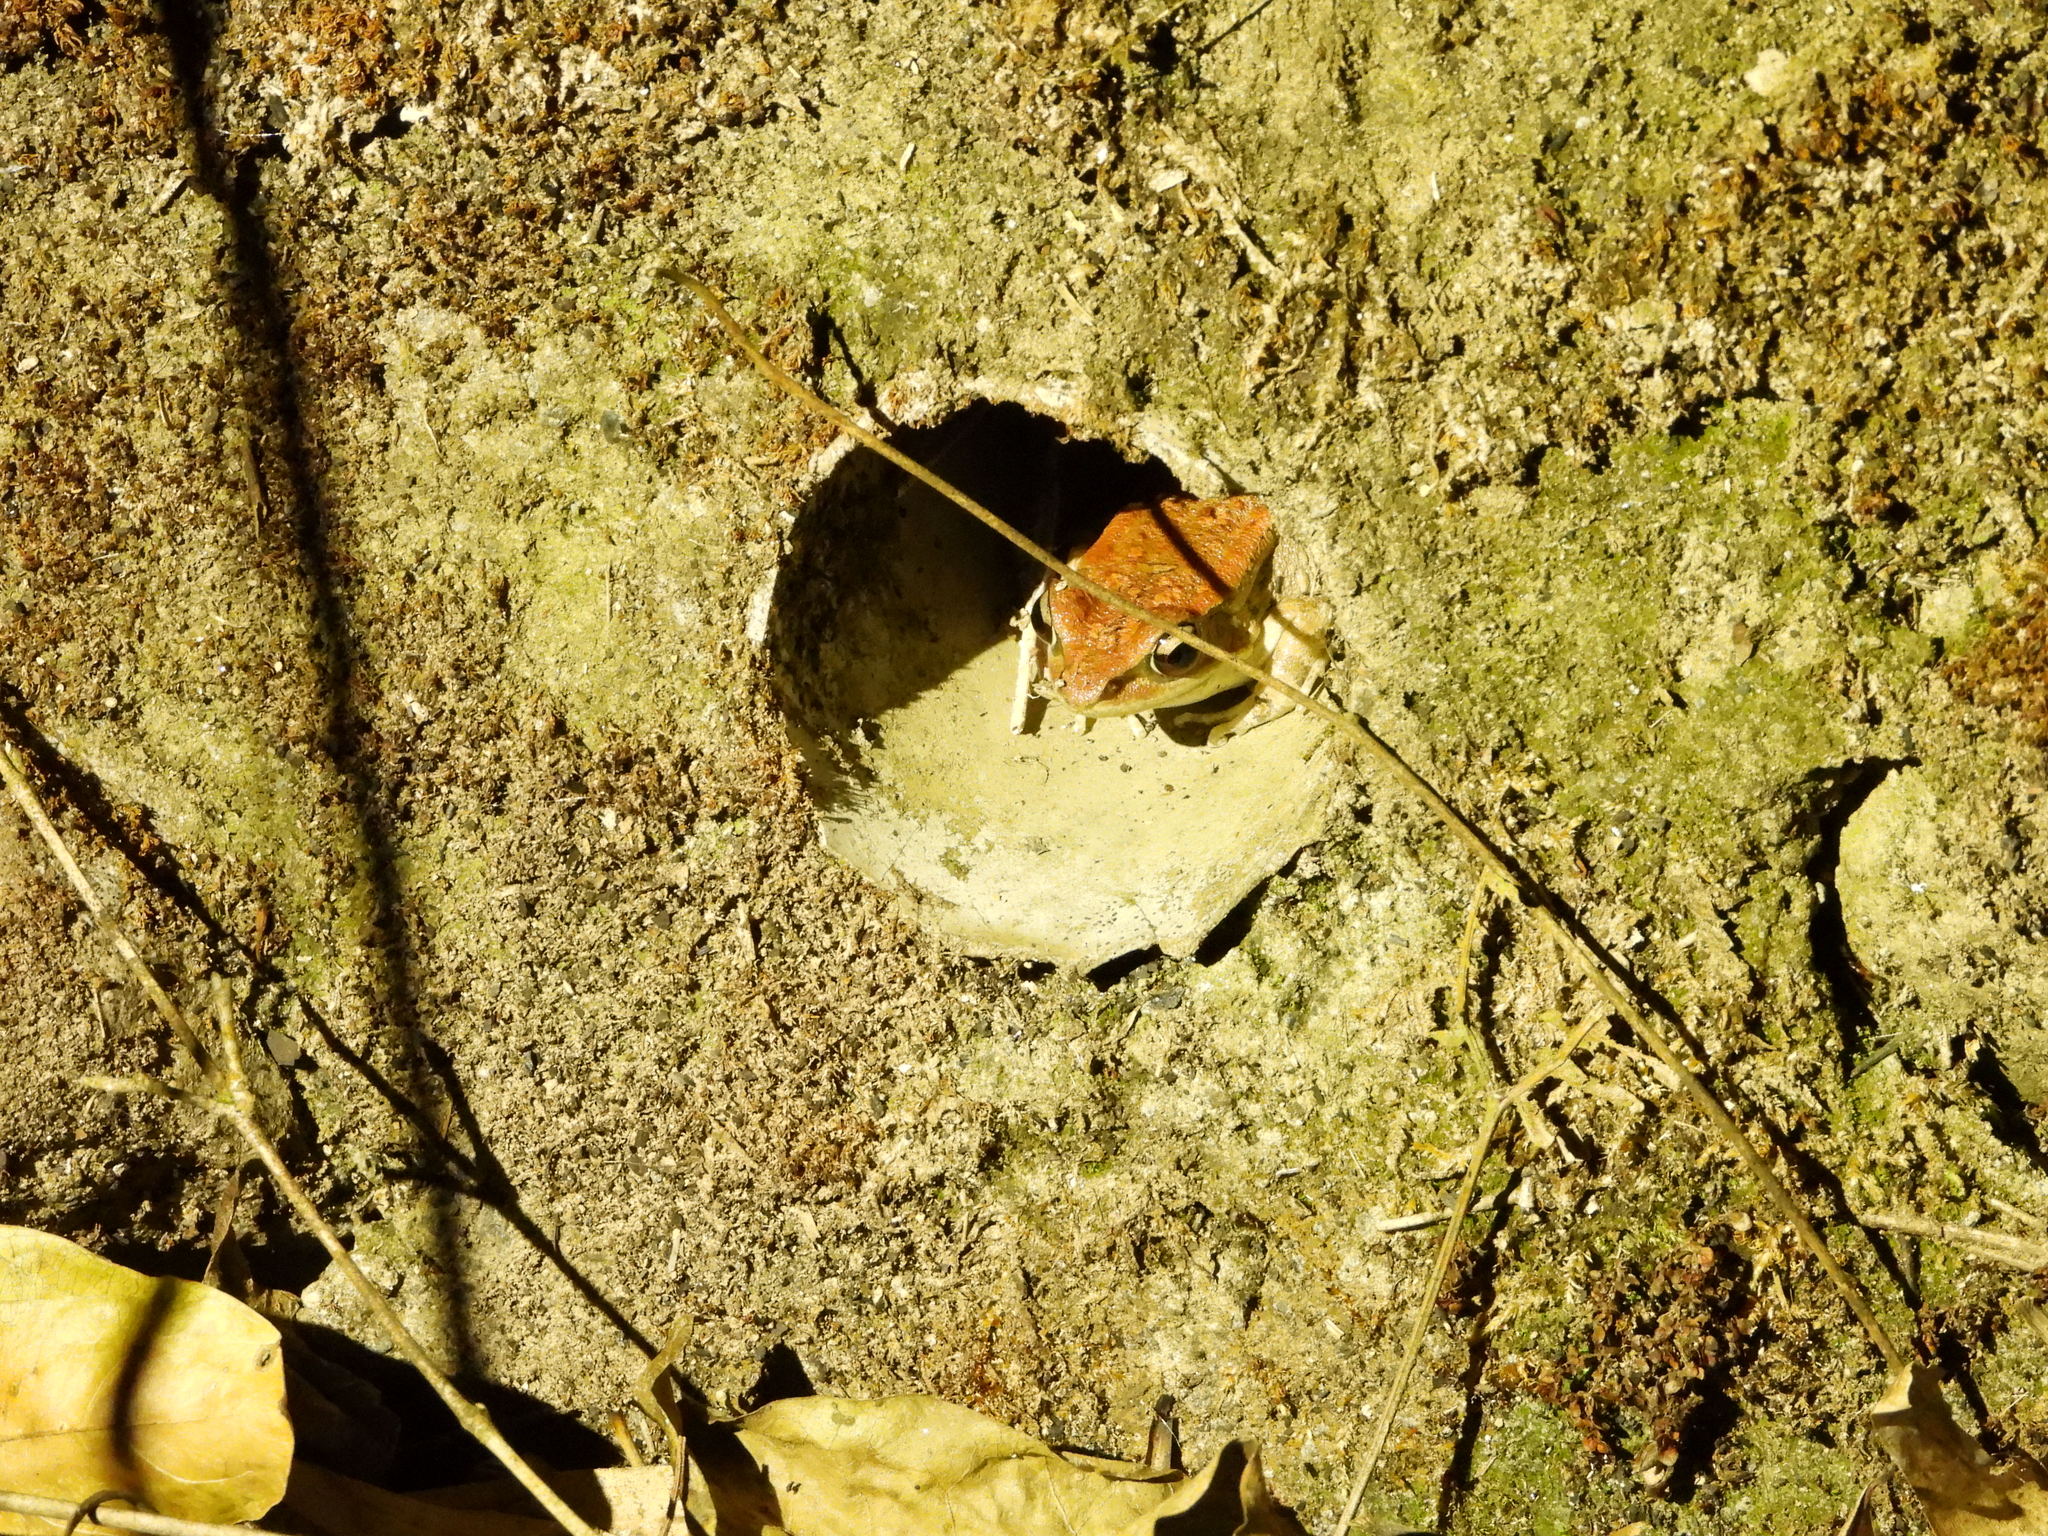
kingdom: Animalia
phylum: Chordata
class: Amphibia
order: Anura
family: Ranidae
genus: Hylarana
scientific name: Hylarana latouchii
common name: Broad-folded frog
